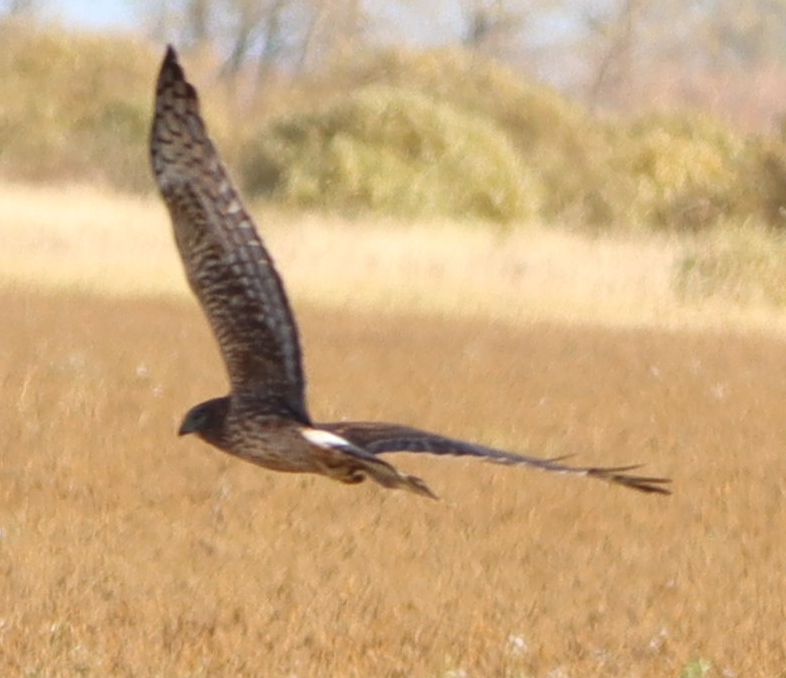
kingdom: Animalia
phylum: Chordata
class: Aves
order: Accipitriformes
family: Accipitridae
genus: Circus
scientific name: Circus cyaneus
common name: Hen harrier
